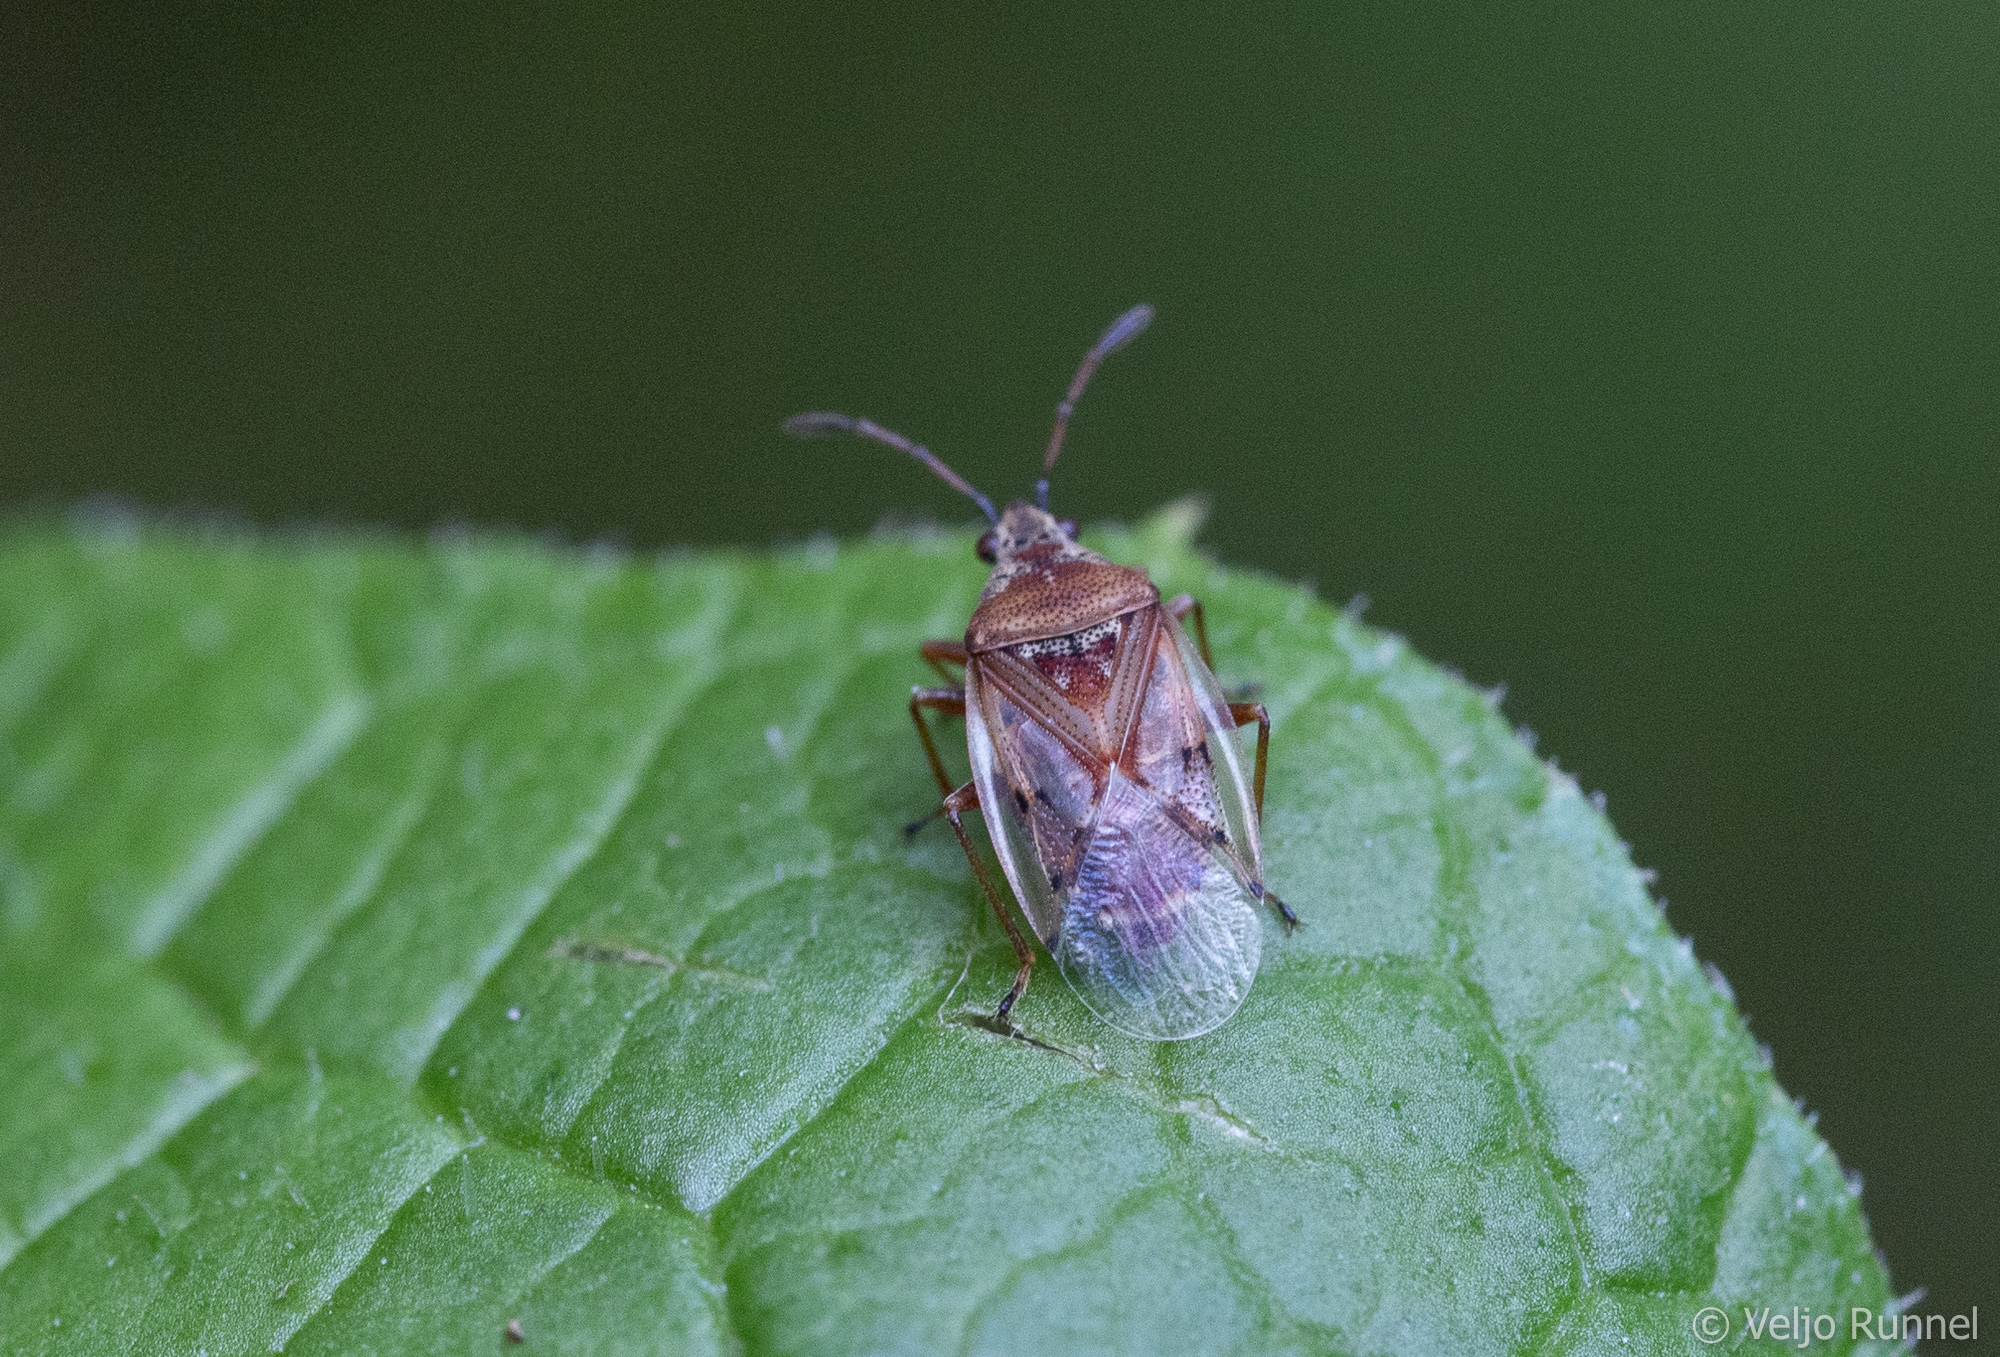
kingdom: Animalia
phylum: Arthropoda
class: Insecta
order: Hemiptera
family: Lygaeidae
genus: Kleidocerys
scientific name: Kleidocerys resedae
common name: Birch catkin bug
